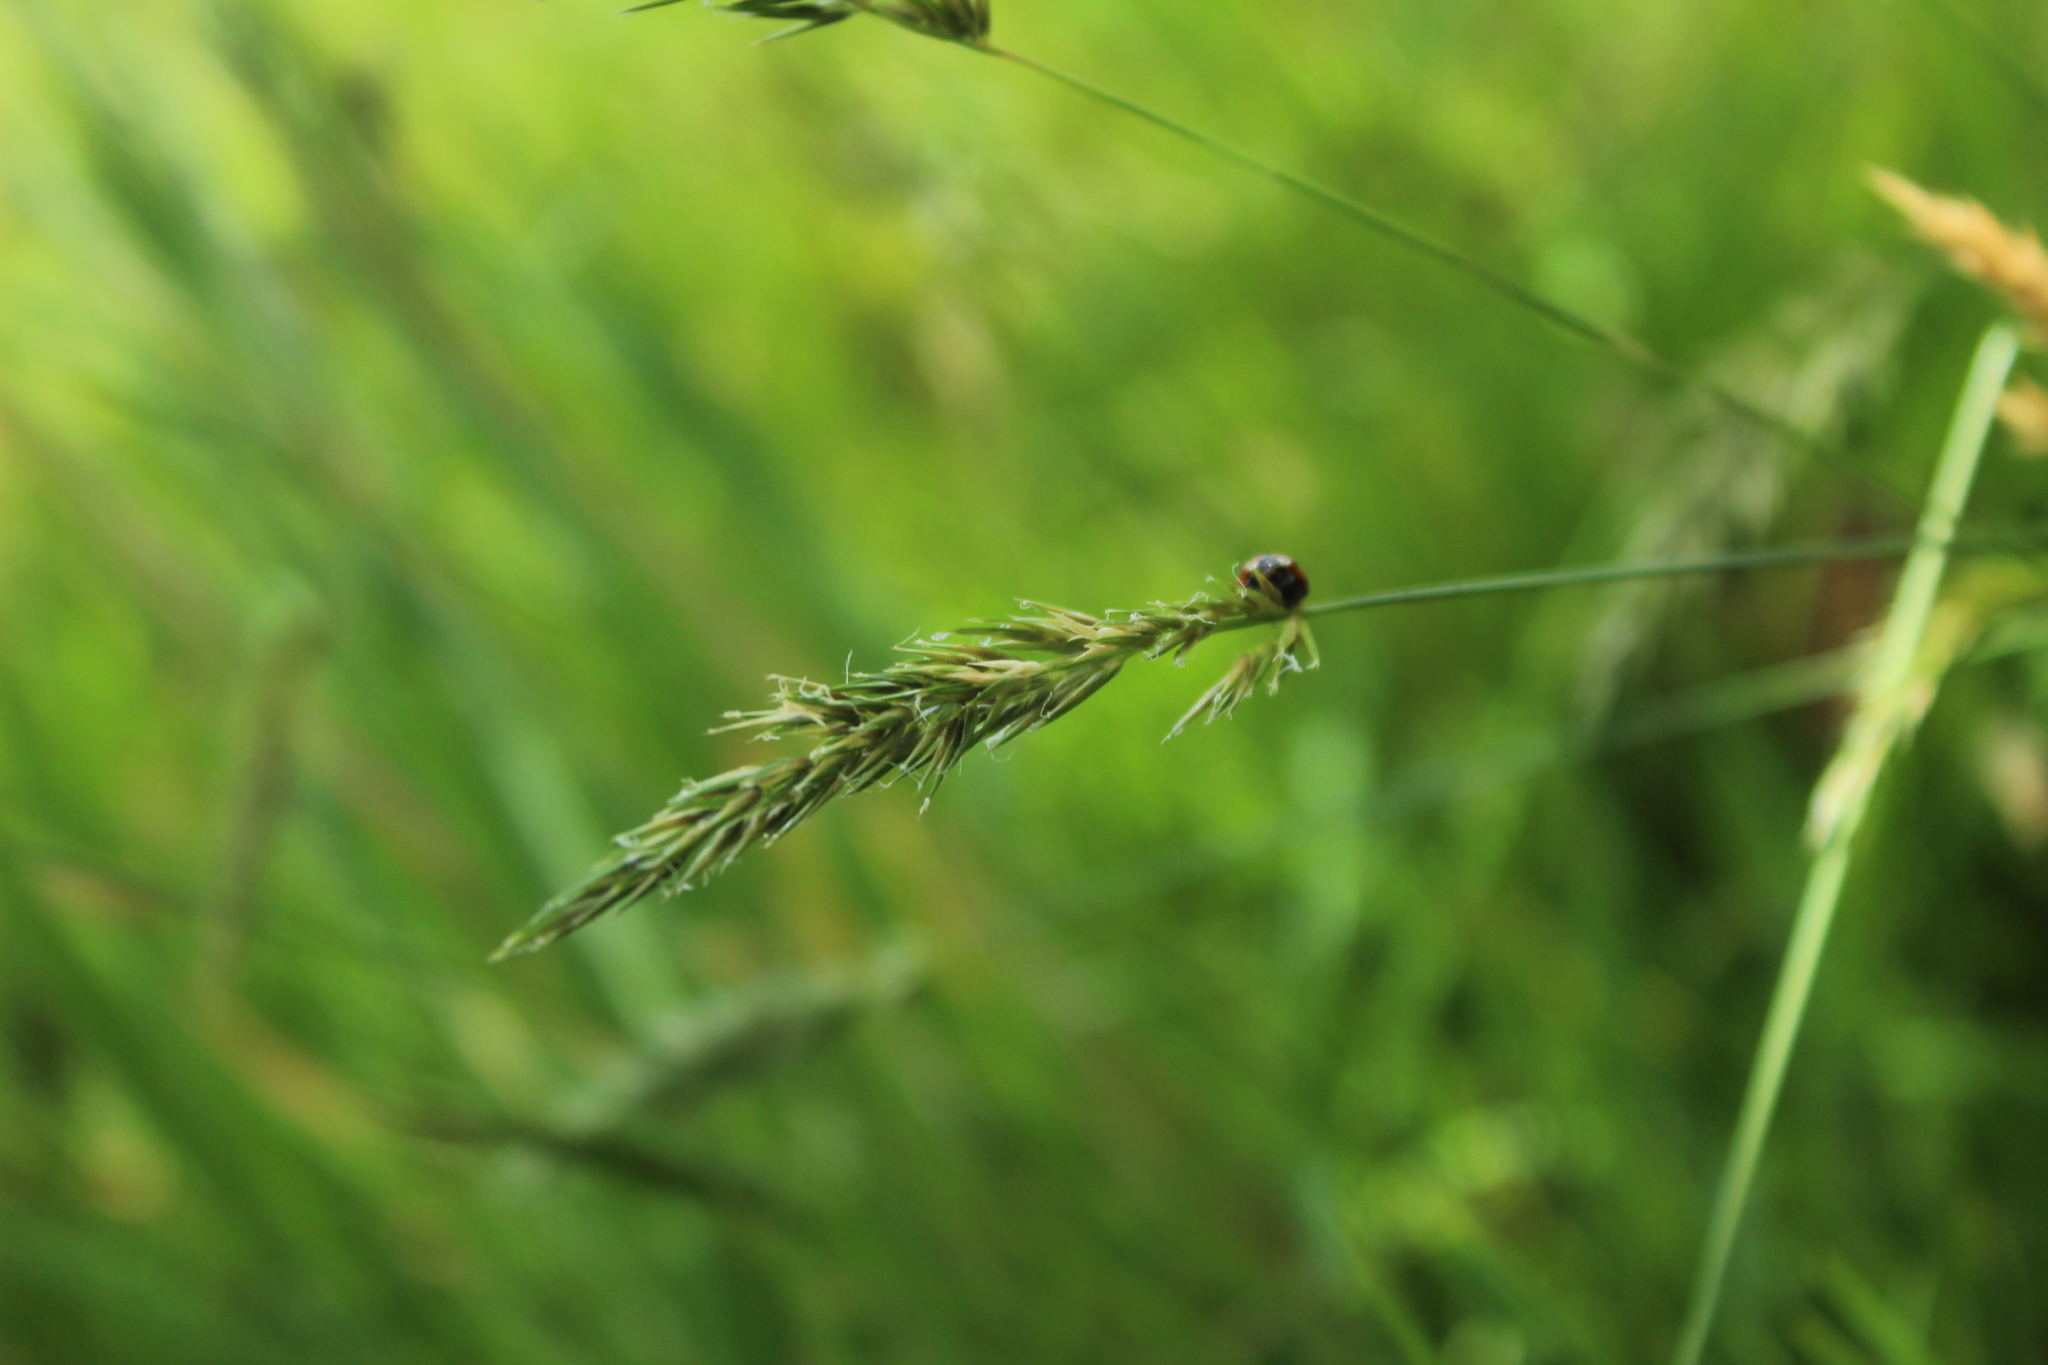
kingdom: Plantae
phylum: Tracheophyta
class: Liliopsida
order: Poales
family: Poaceae
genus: Anthoxanthum
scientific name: Anthoxanthum odoratum
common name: Sweet vernalgrass
